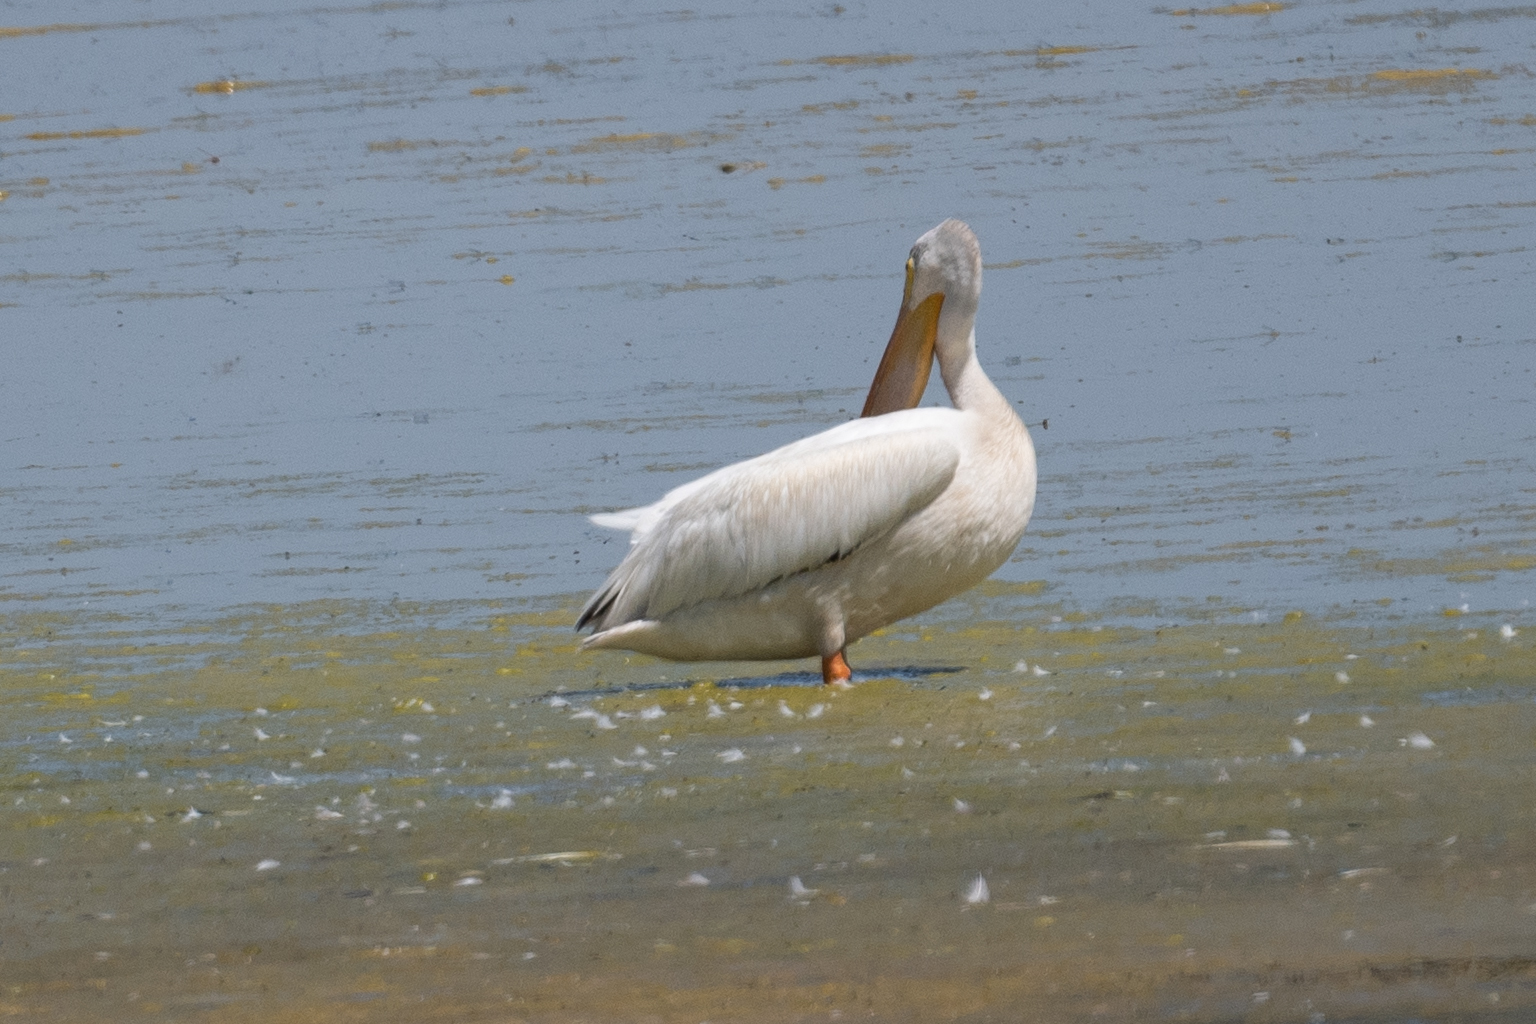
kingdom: Animalia
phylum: Chordata
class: Aves
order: Pelecaniformes
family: Pelecanidae
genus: Pelecanus
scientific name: Pelecanus erythrorhynchos
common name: American white pelican
